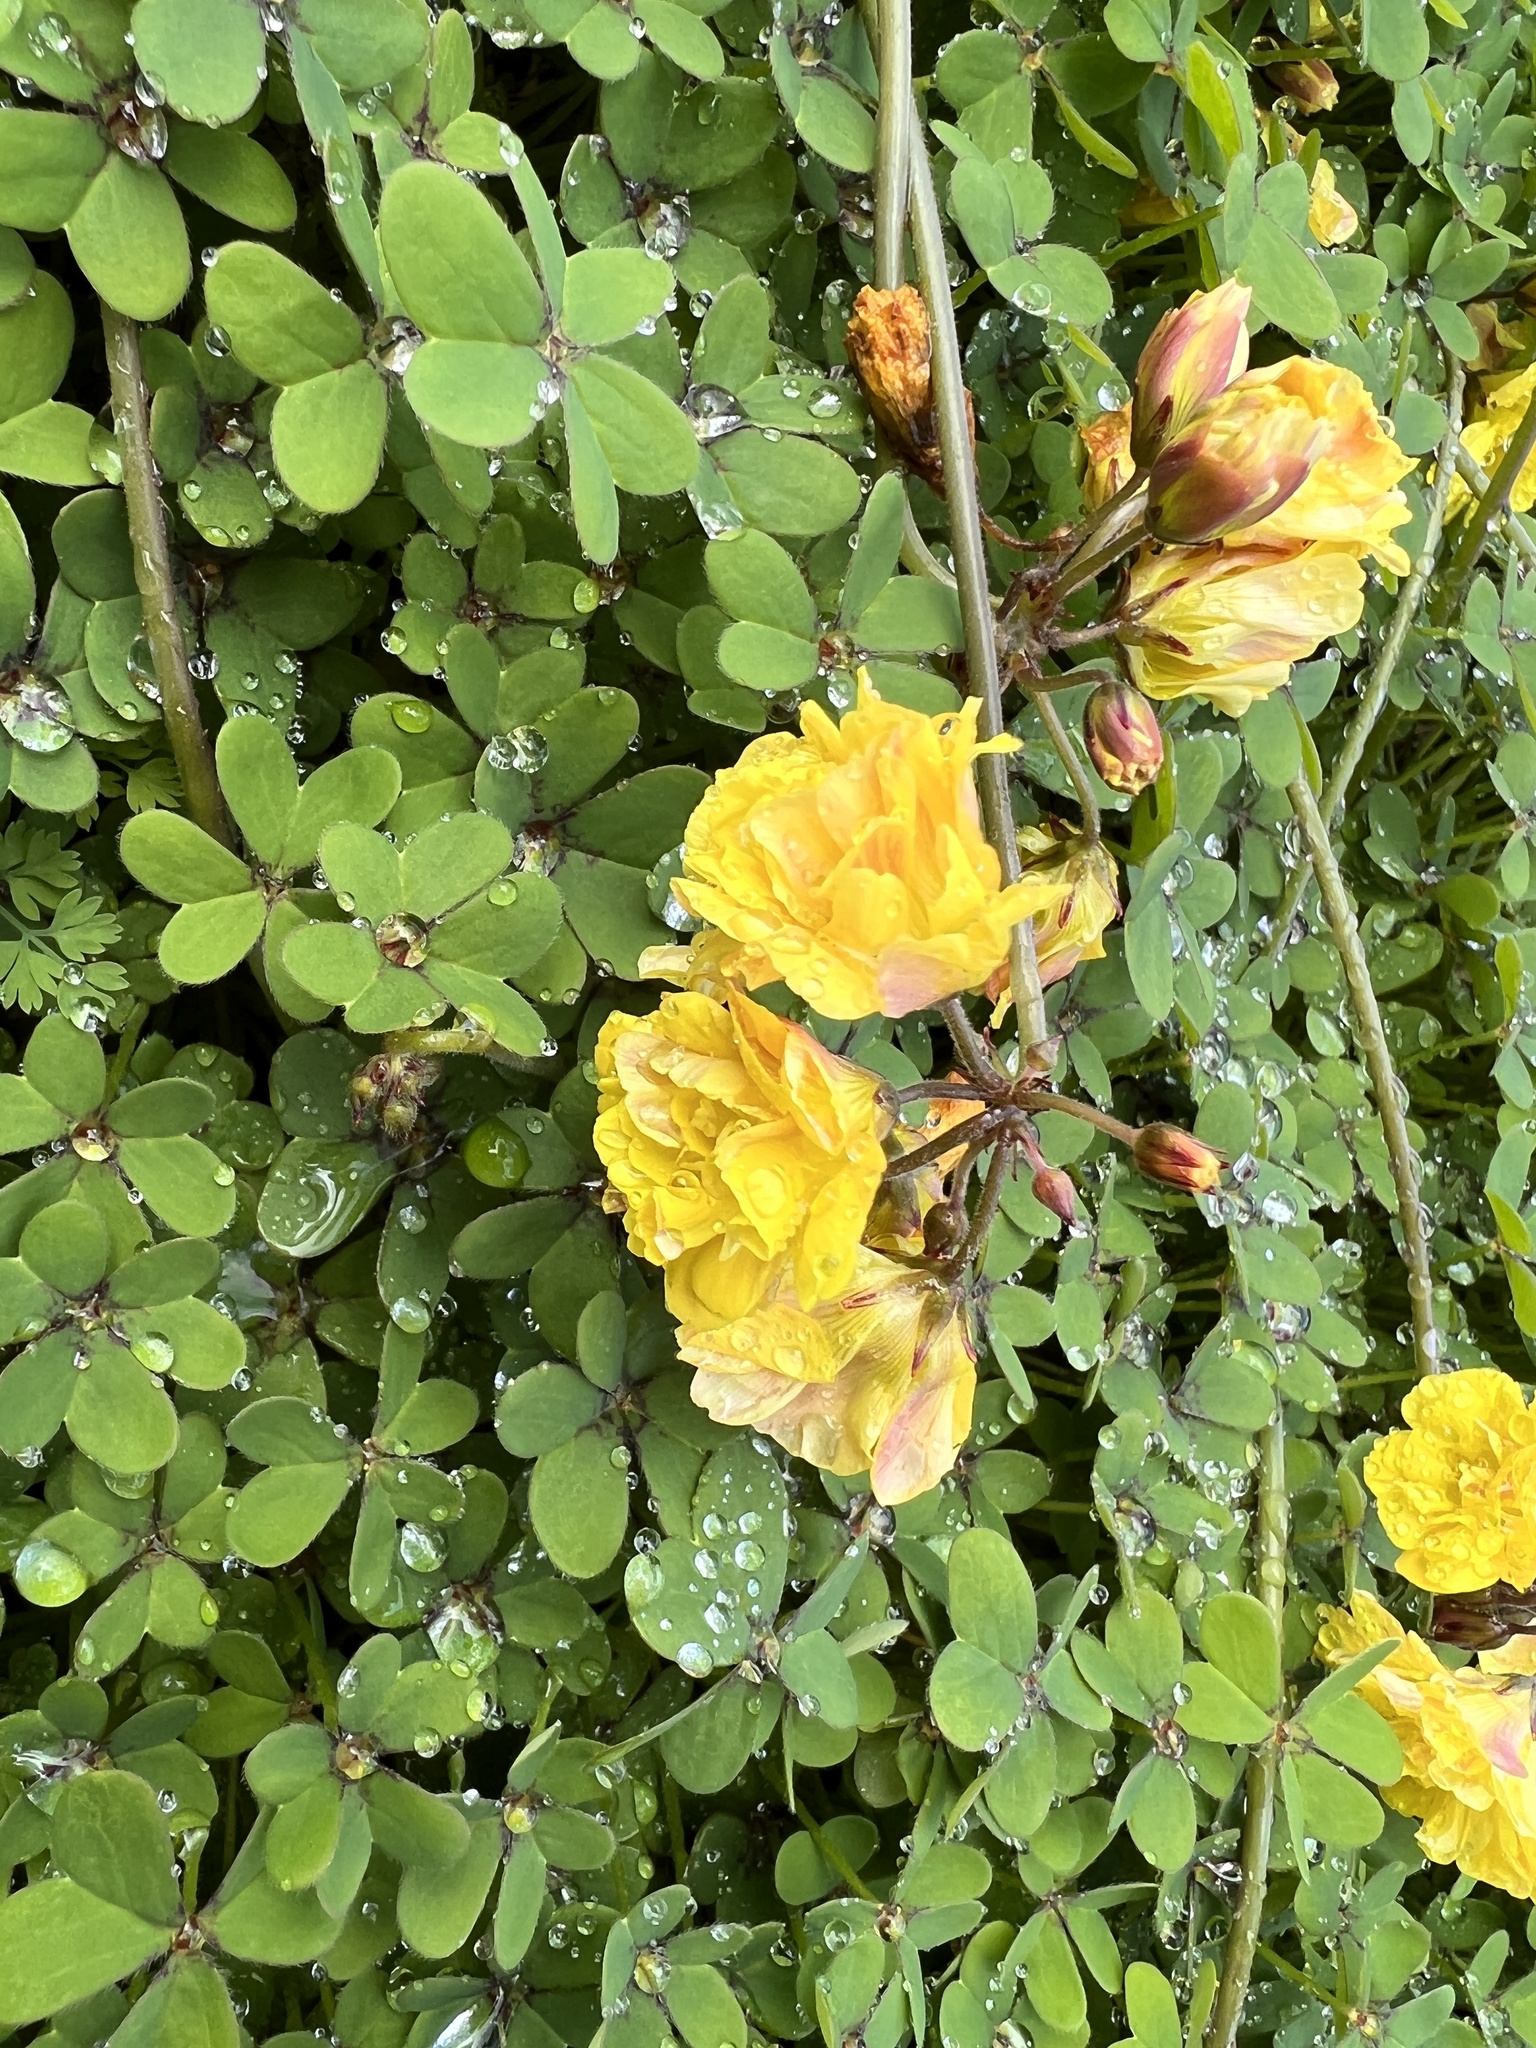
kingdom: Plantae
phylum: Tracheophyta
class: Magnoliopsida
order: Oxalidales
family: Oxalidaceae
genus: Oxalis
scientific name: Oxalis pes-caprae
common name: Bermuda-buttercup
